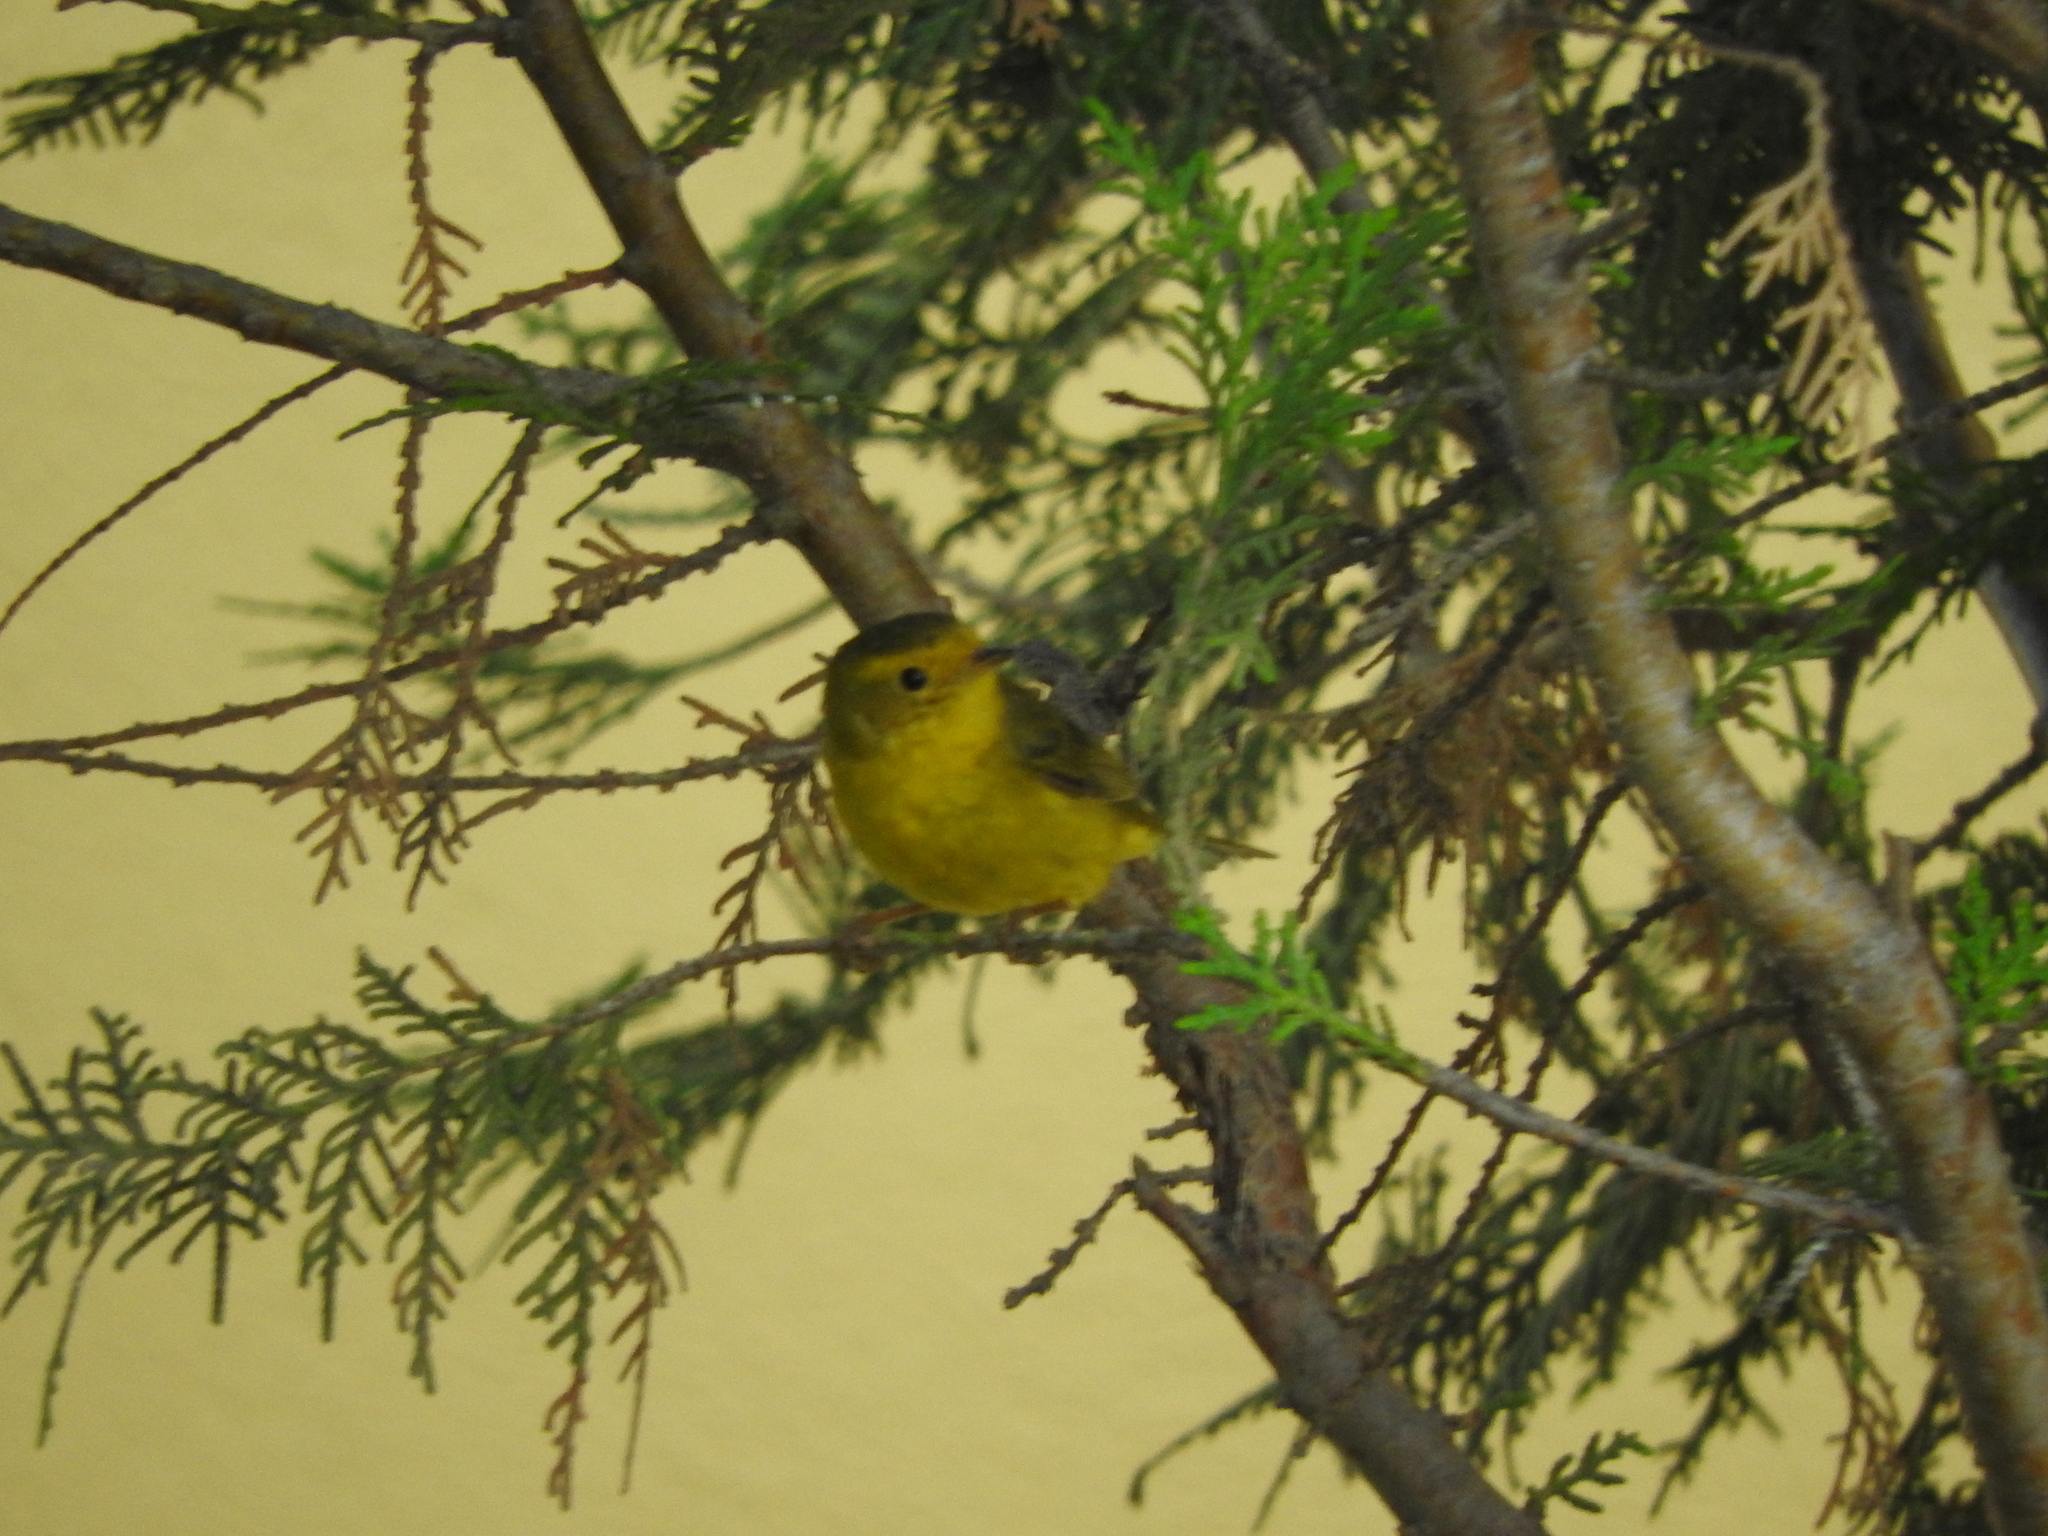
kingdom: Animalia
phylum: Chordata
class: Aves
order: Passeriformes
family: Parulidae
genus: Cardellina
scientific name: Cardellina pusilla
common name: Wilson's warbler
